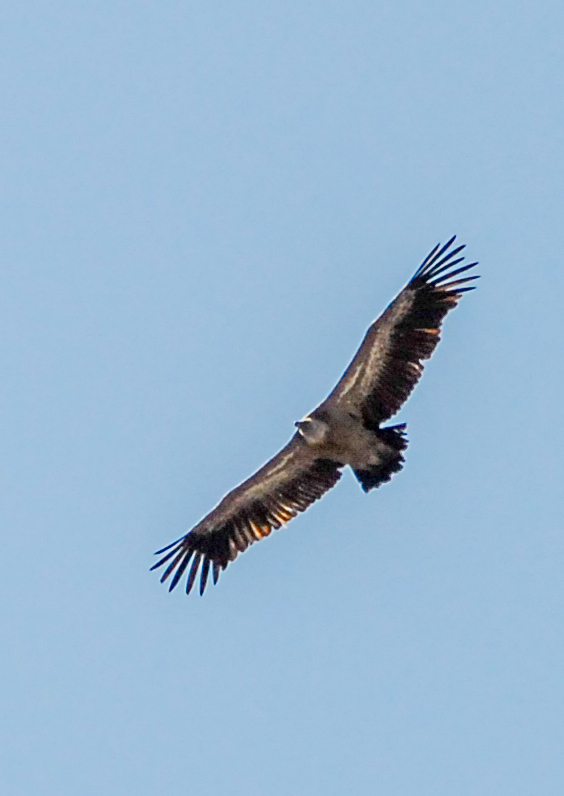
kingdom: Animalia
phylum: Chordata
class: Aves
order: Accipitriformes
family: Accipitridae
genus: Gyps
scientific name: Gyps fulvus
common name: Griffon vulture
